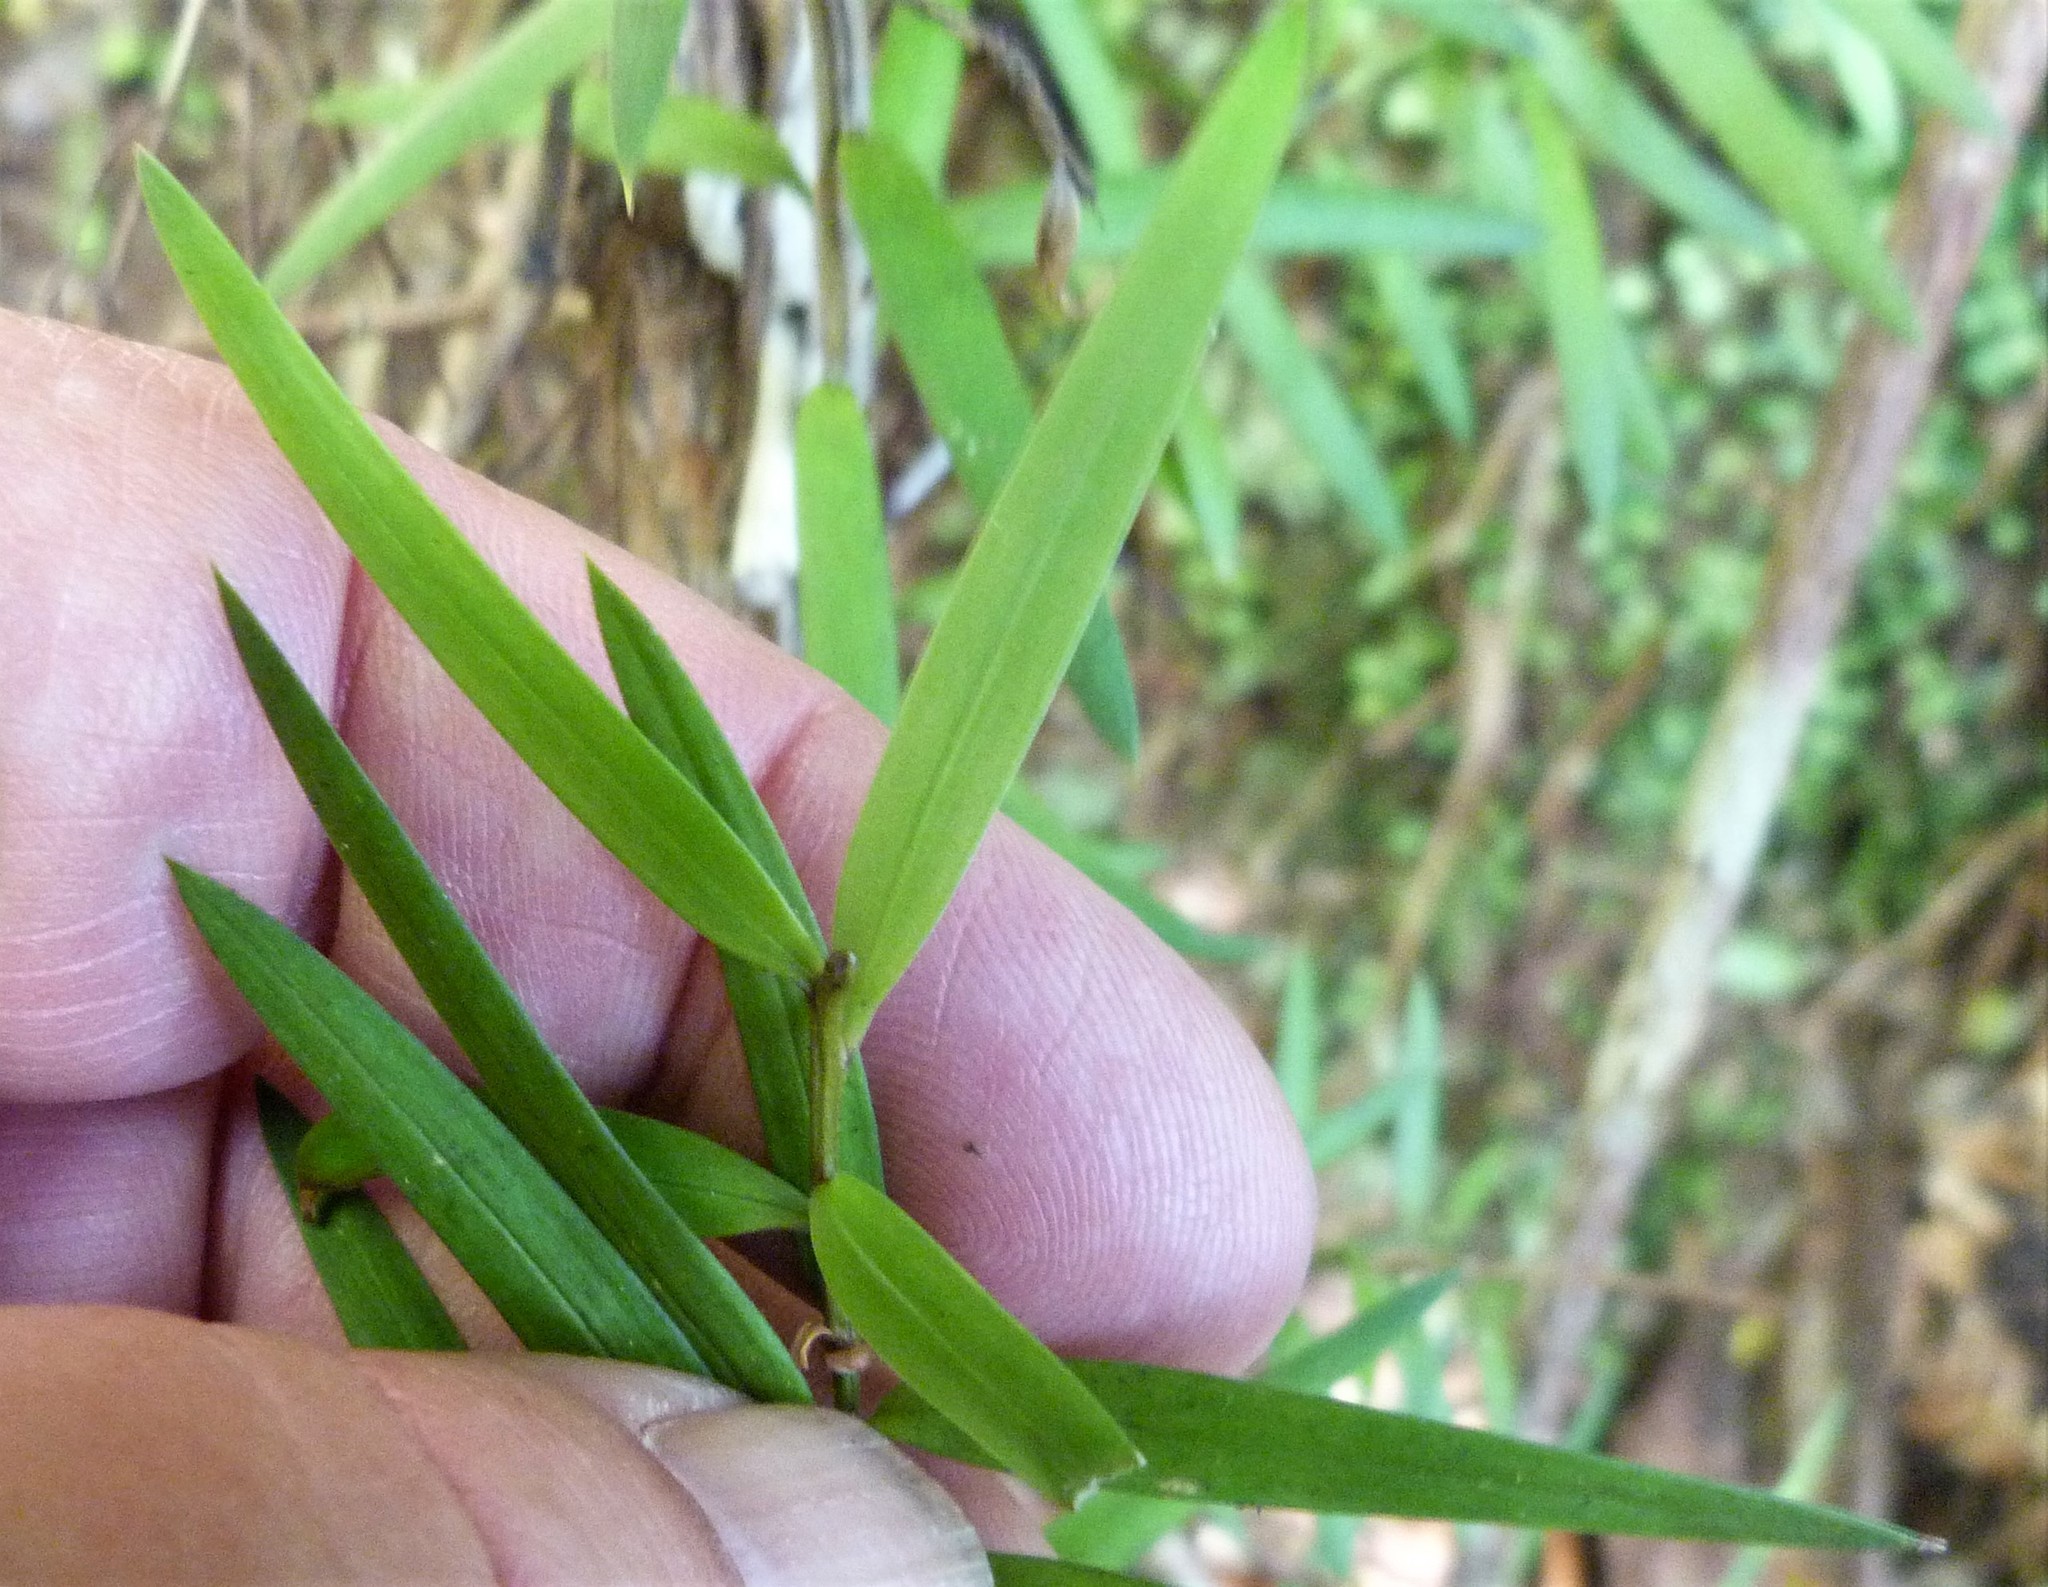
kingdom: Plantae
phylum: Tracheophyta
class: Pinopsida
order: Pinales
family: Podocarpaceae
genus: Podocarpus
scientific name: Podocarpus totara
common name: Totara
